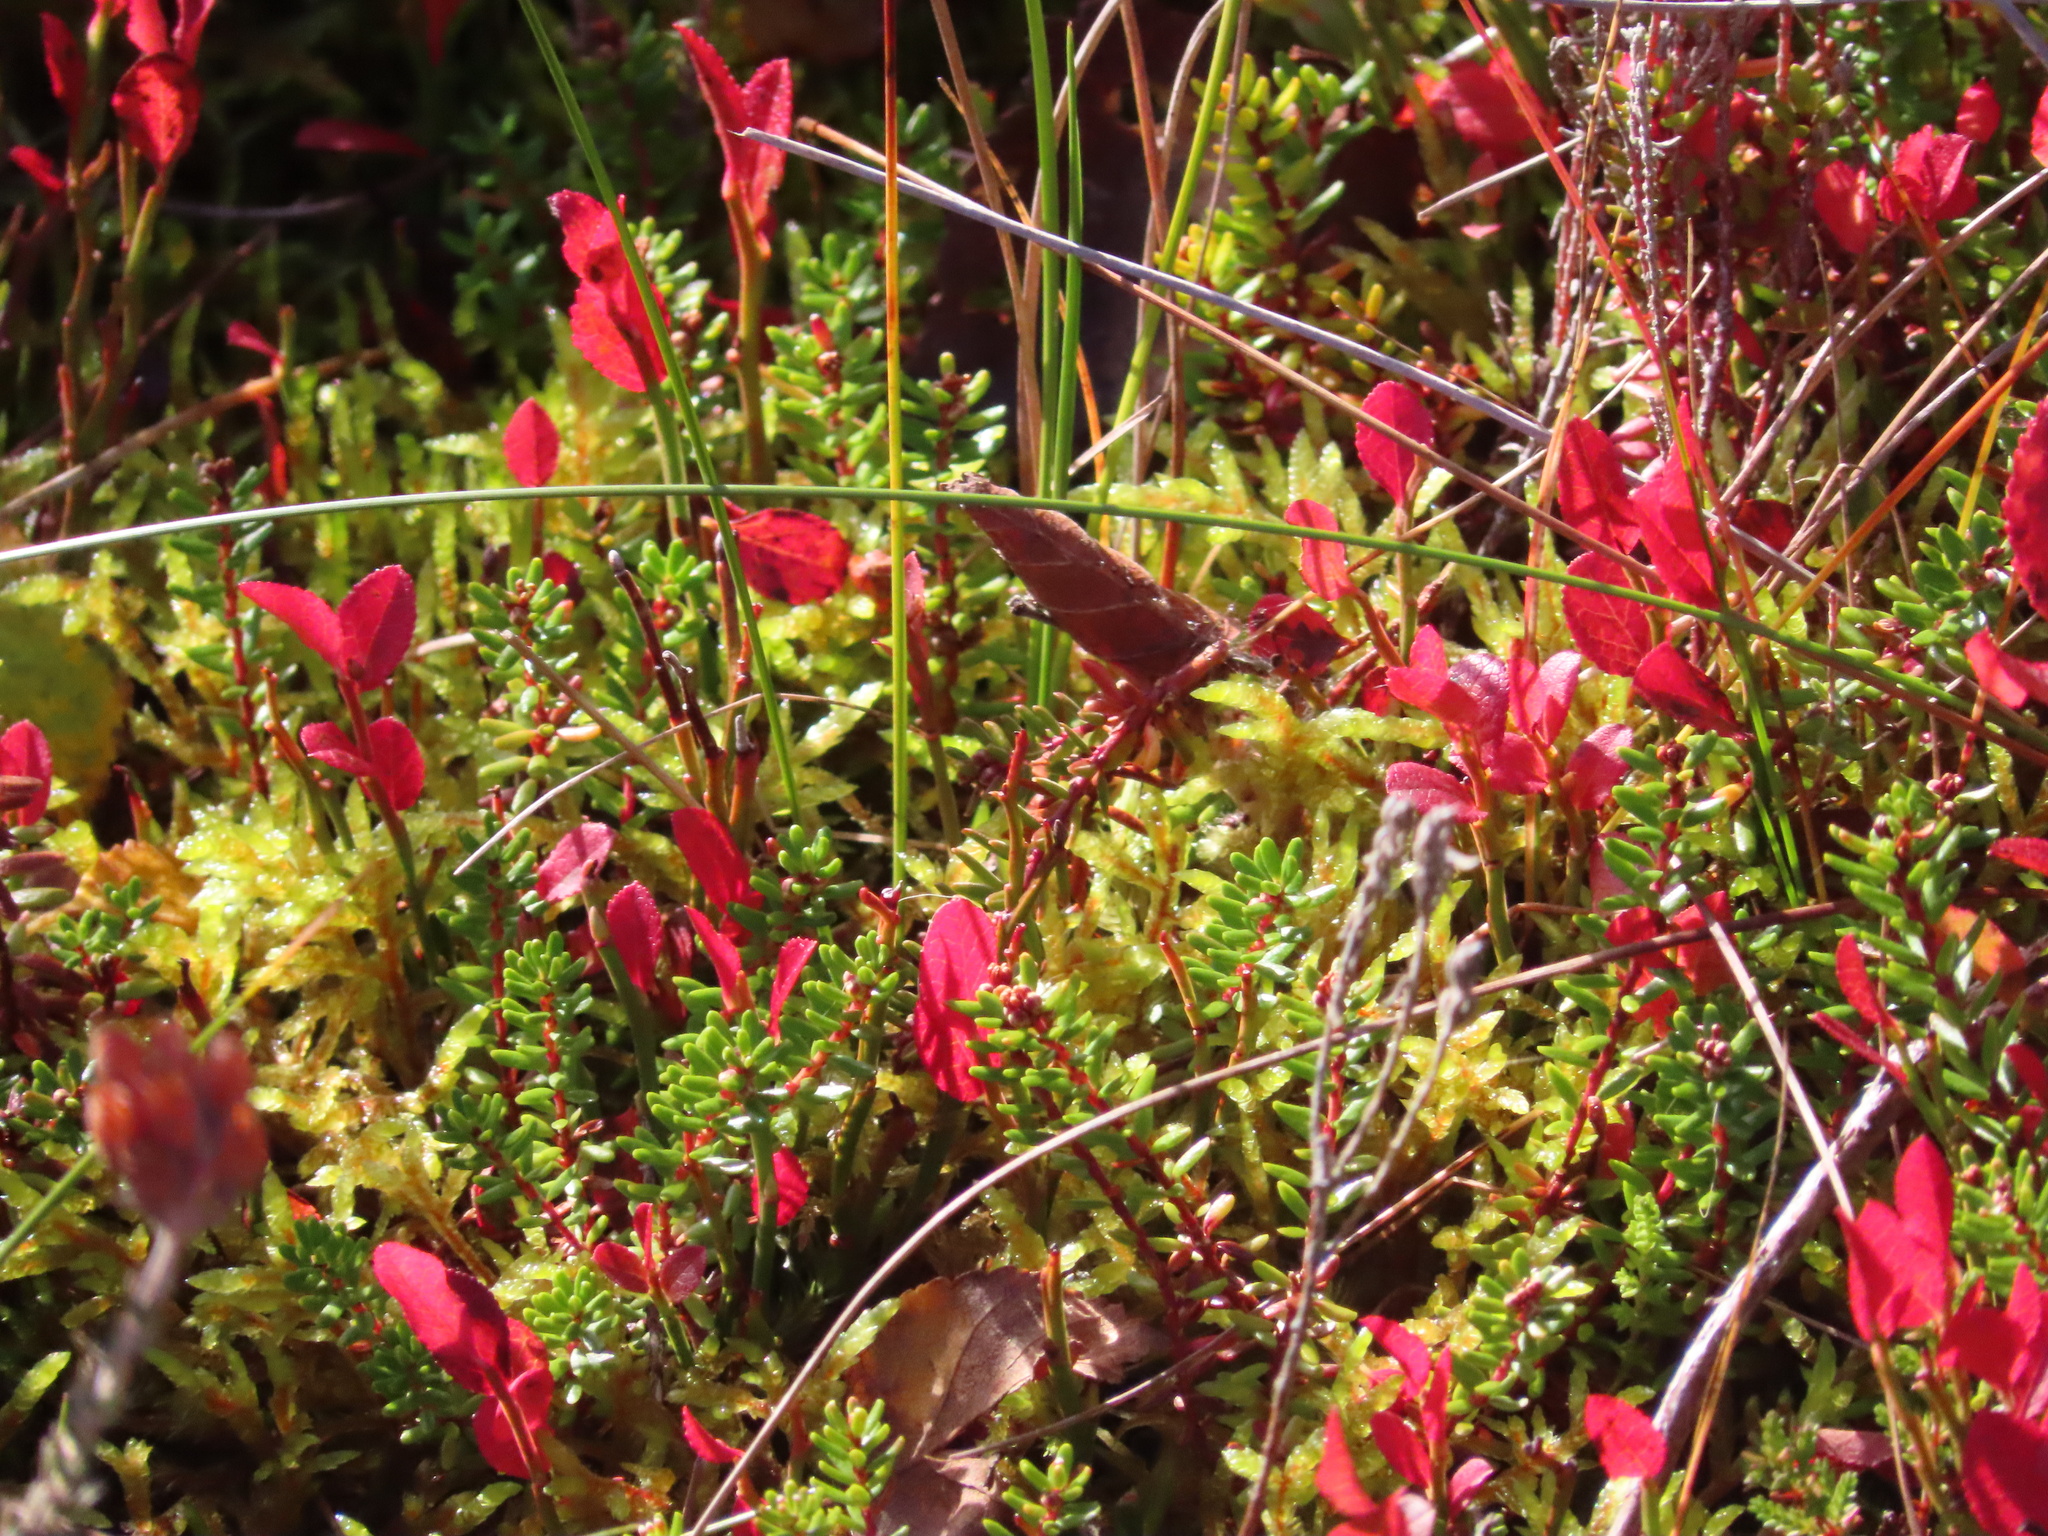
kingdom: Plantae
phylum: Tracheophyta
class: Magnoliopsida
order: Ericales
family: Ericaceae
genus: Vaccinium
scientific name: Vaccinium myrtillus
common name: Bilberry
